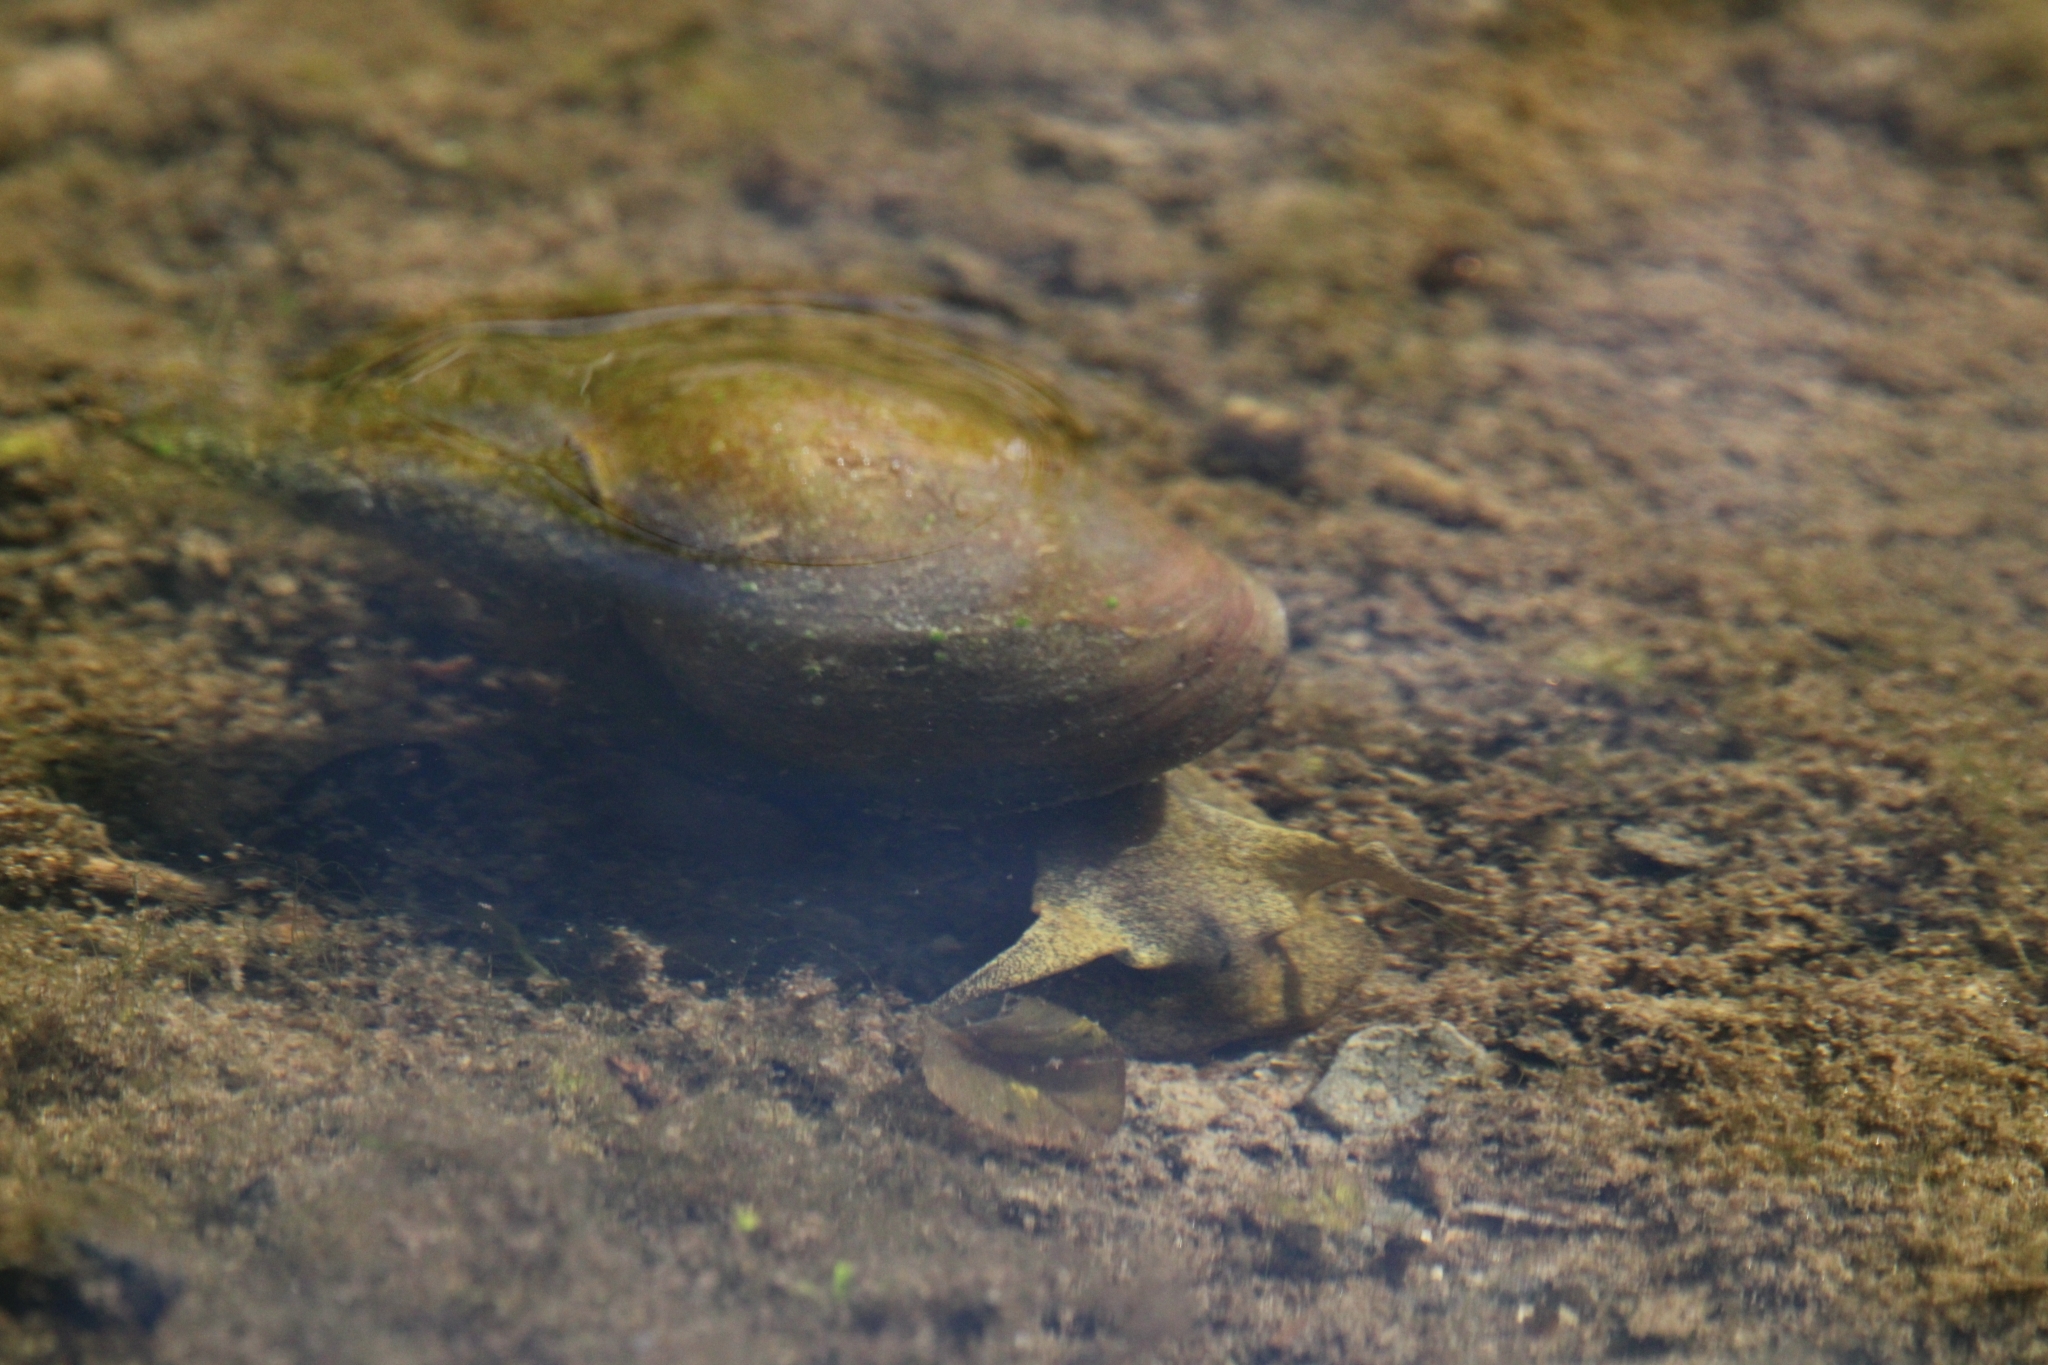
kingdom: Animalia
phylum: Mollusca
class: Gastropoda
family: Lymnaeidae
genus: Lymnaea
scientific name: Lymnaea stagnalis
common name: Great pond snail
